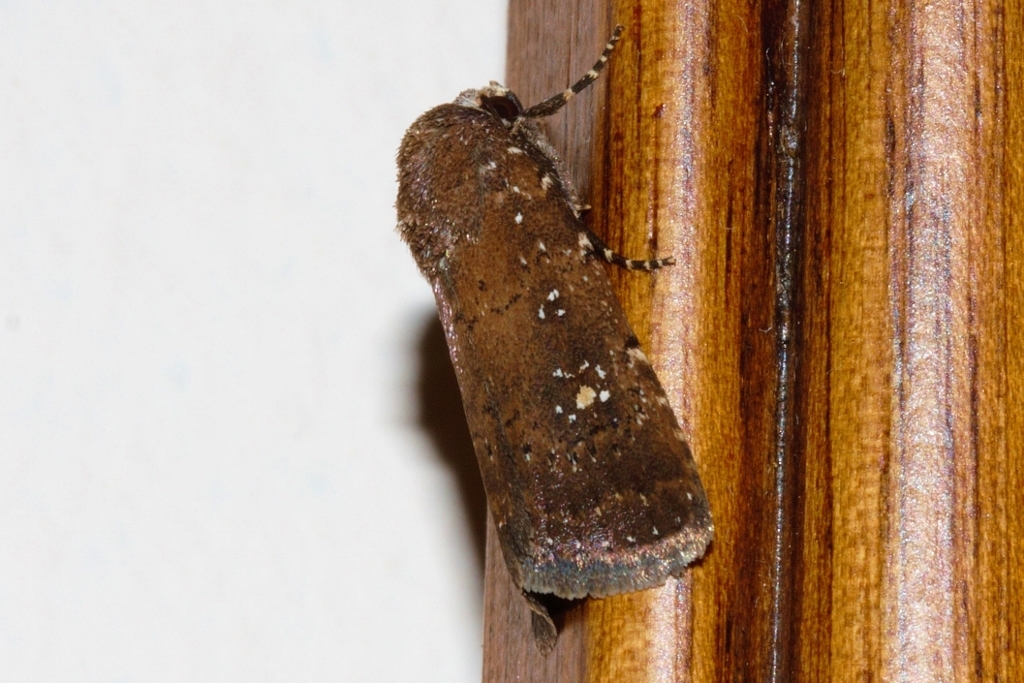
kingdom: Animalia
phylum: Arthropoda
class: Insecta
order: Lepidoptera
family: Noctuidae
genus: Athetis
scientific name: Athetis satellitia
